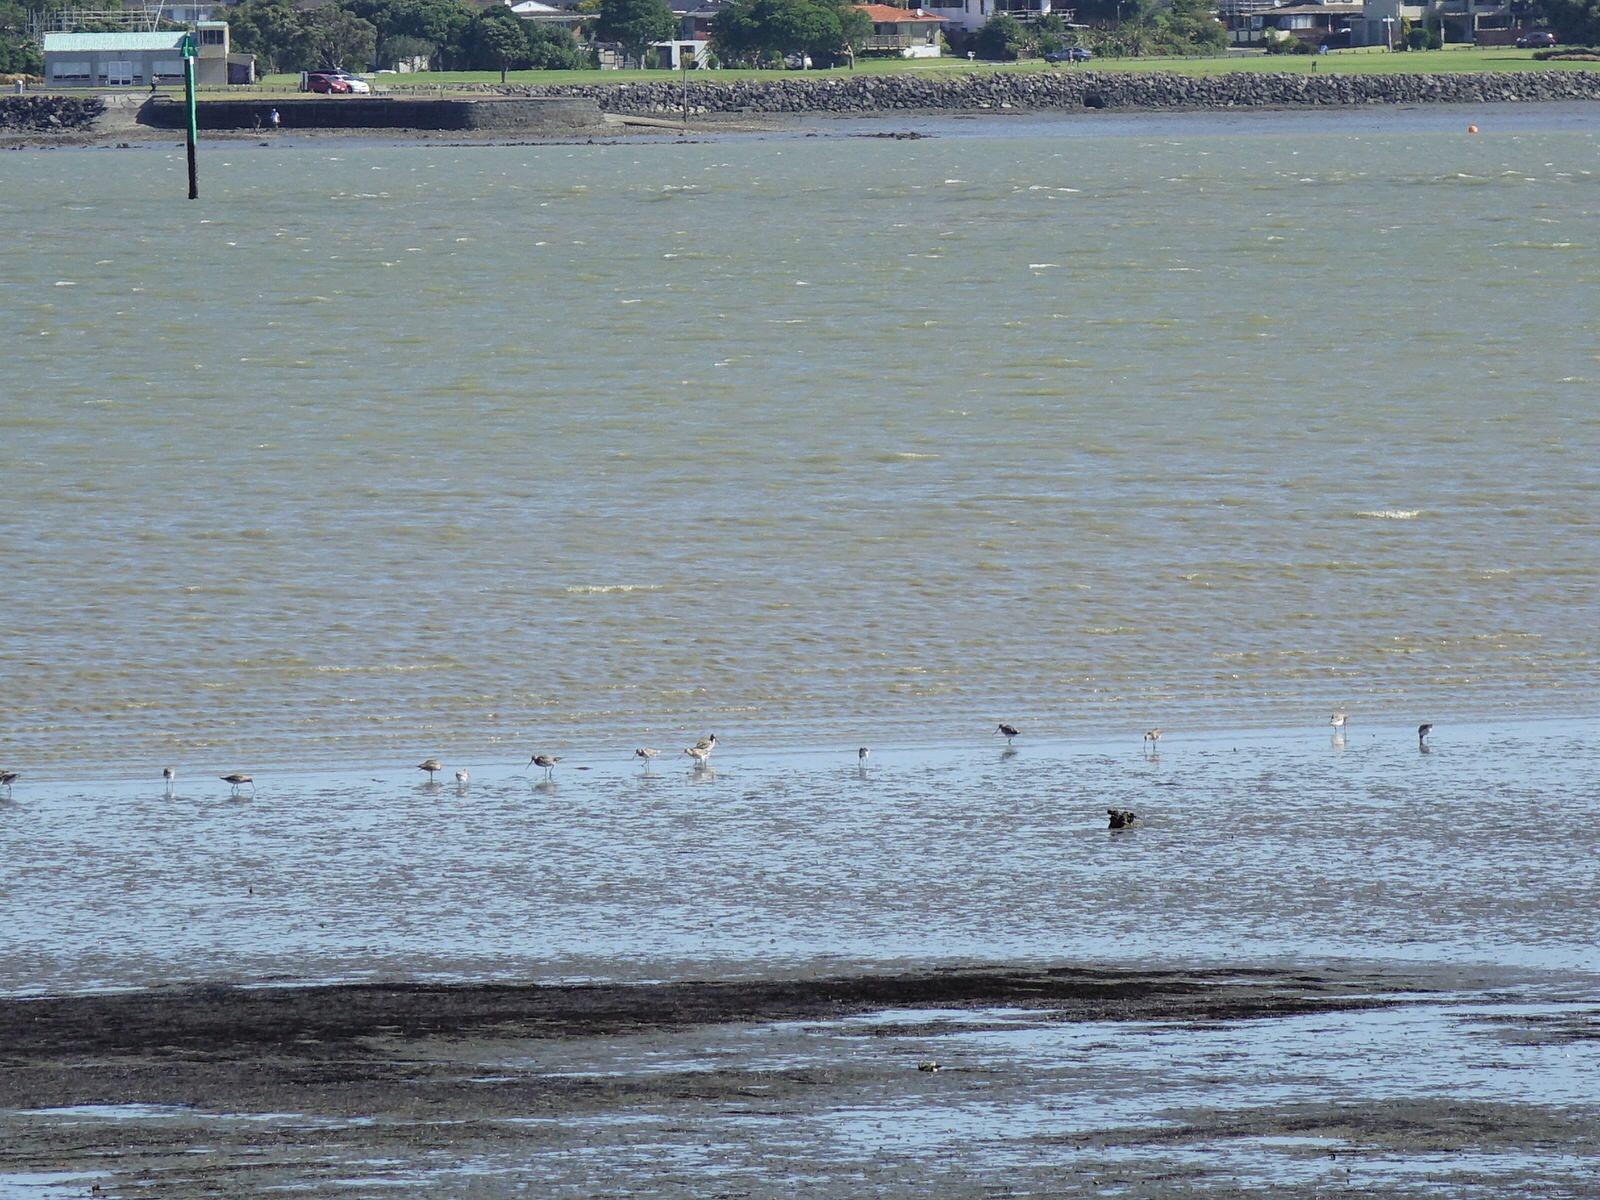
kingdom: Animalia
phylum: Chordata
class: Aves
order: Charadriiformes
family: Scolopacidae
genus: Limosa
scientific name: Limosa lapponica
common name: Bar-tailed godwit
